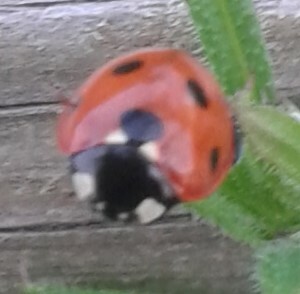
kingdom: Animalia
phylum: Arthropoda
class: Insecta
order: Coleoptera
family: Coccinellidae
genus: Coccinella
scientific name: Coccinella septempunctata
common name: Sevenspotted lady beetle
